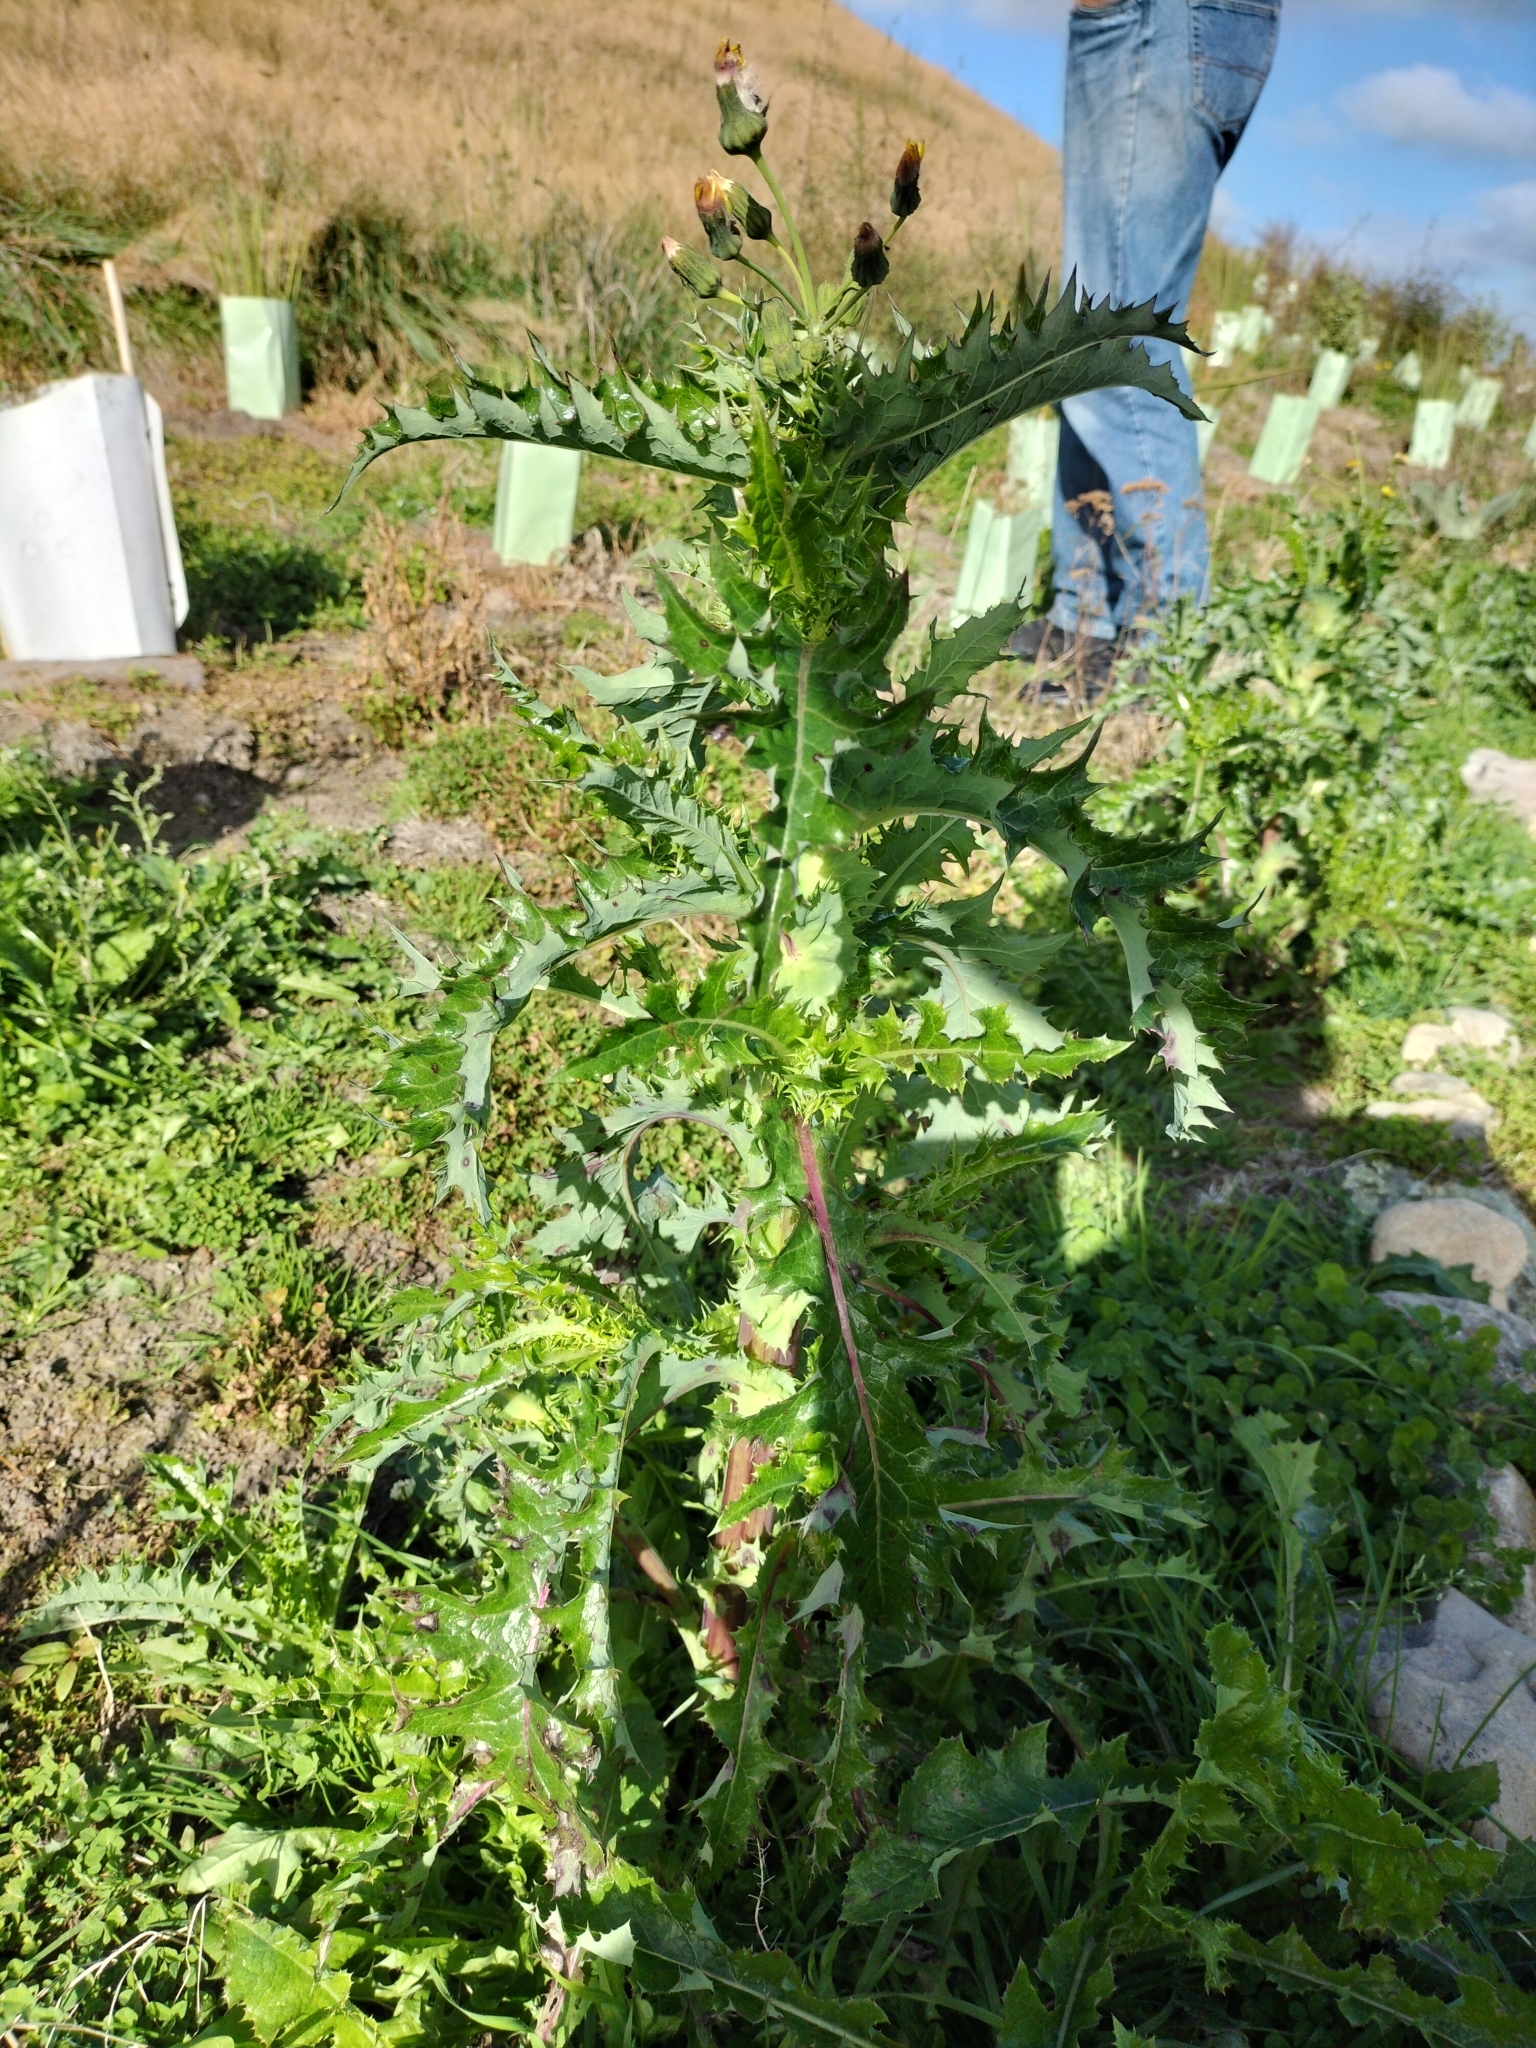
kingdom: Plantae
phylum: Tracheophyta
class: Magnoliopsida
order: Asterales
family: Asteraceae
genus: Sonchus
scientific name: Sonchus asper
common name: Prickly sow-thistle
